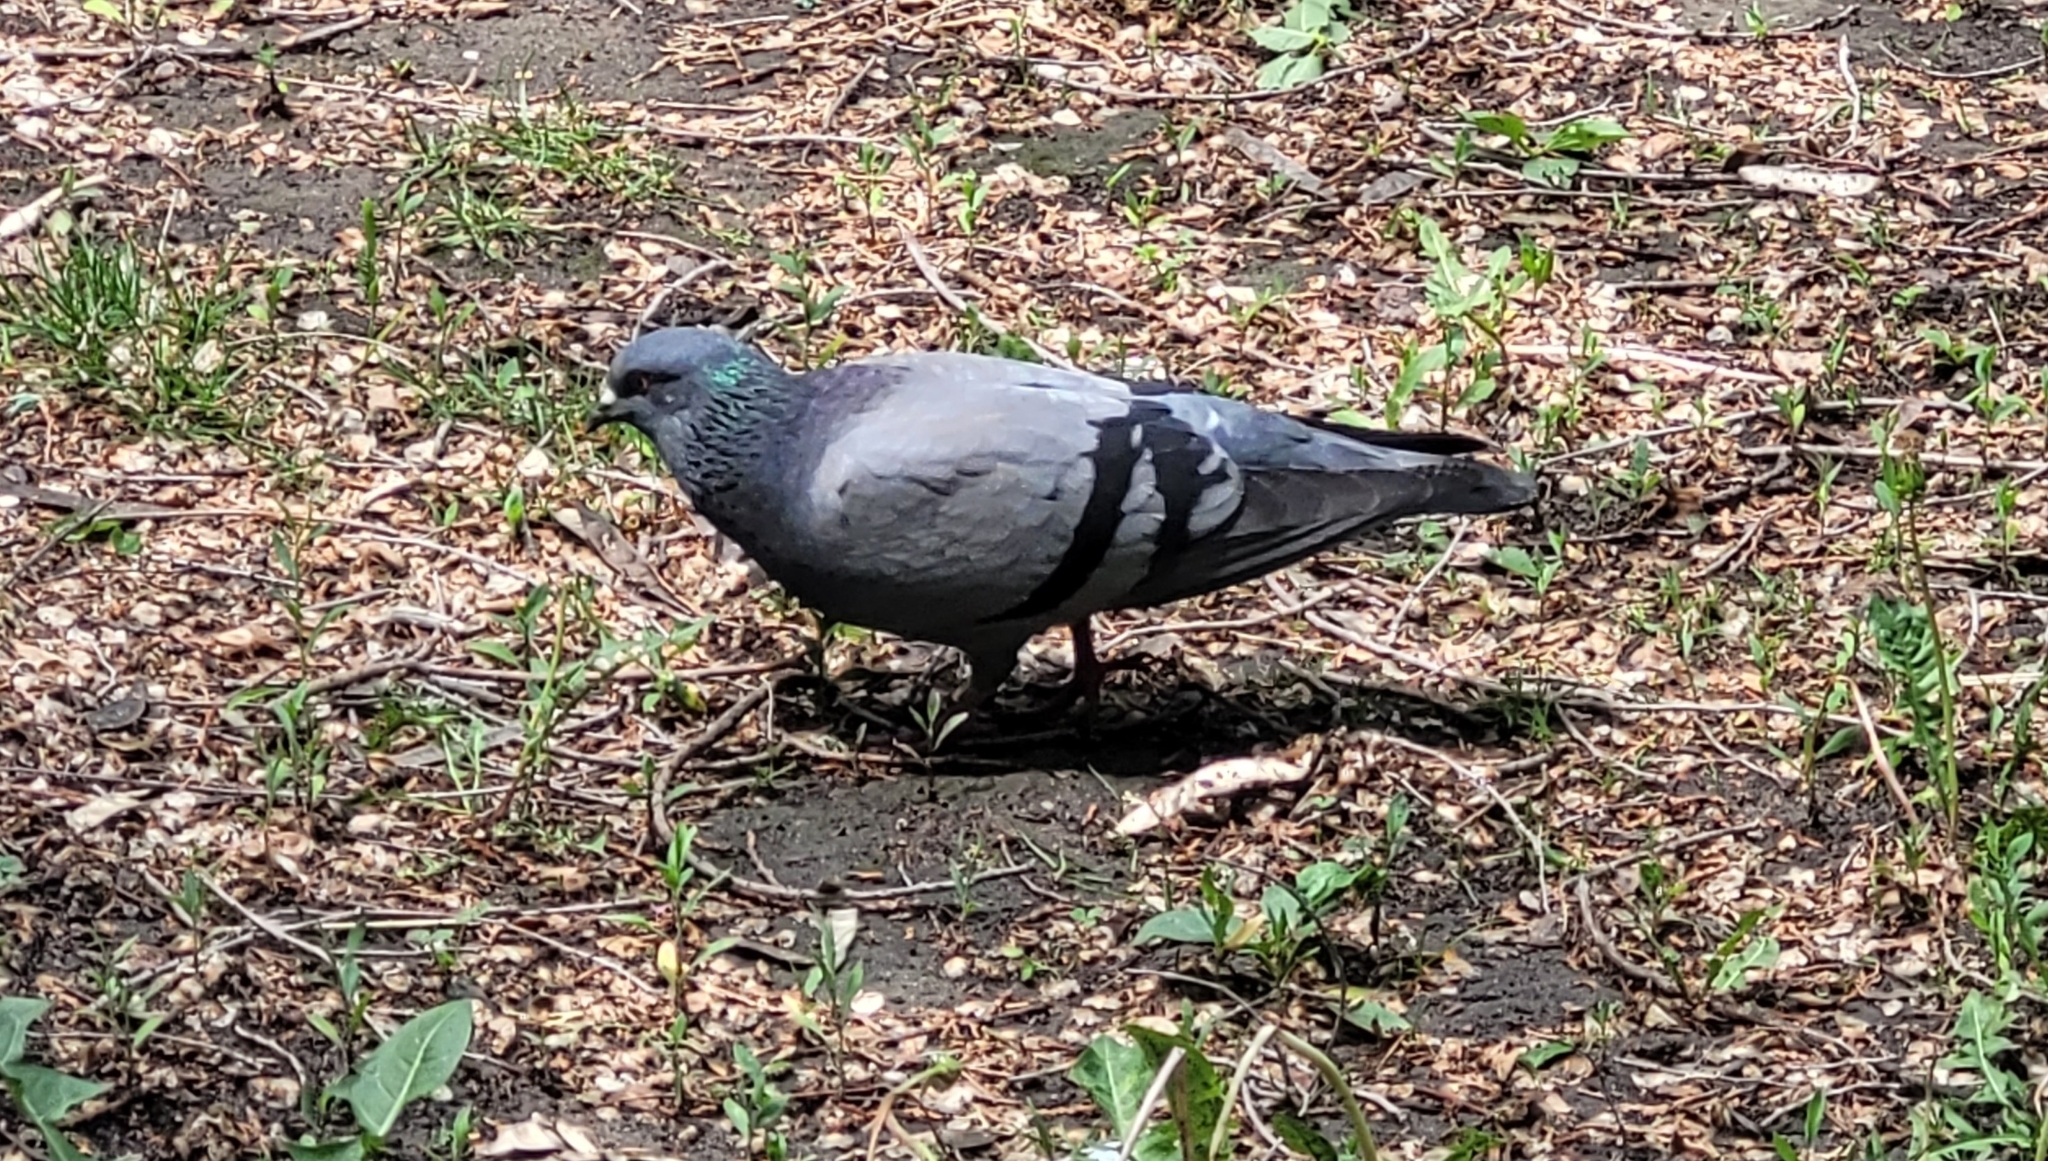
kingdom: Animalia
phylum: Chordata
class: Aves
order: Columbiformes
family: Columbidae
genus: Columba
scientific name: Columba livia
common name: Rock pigeon
